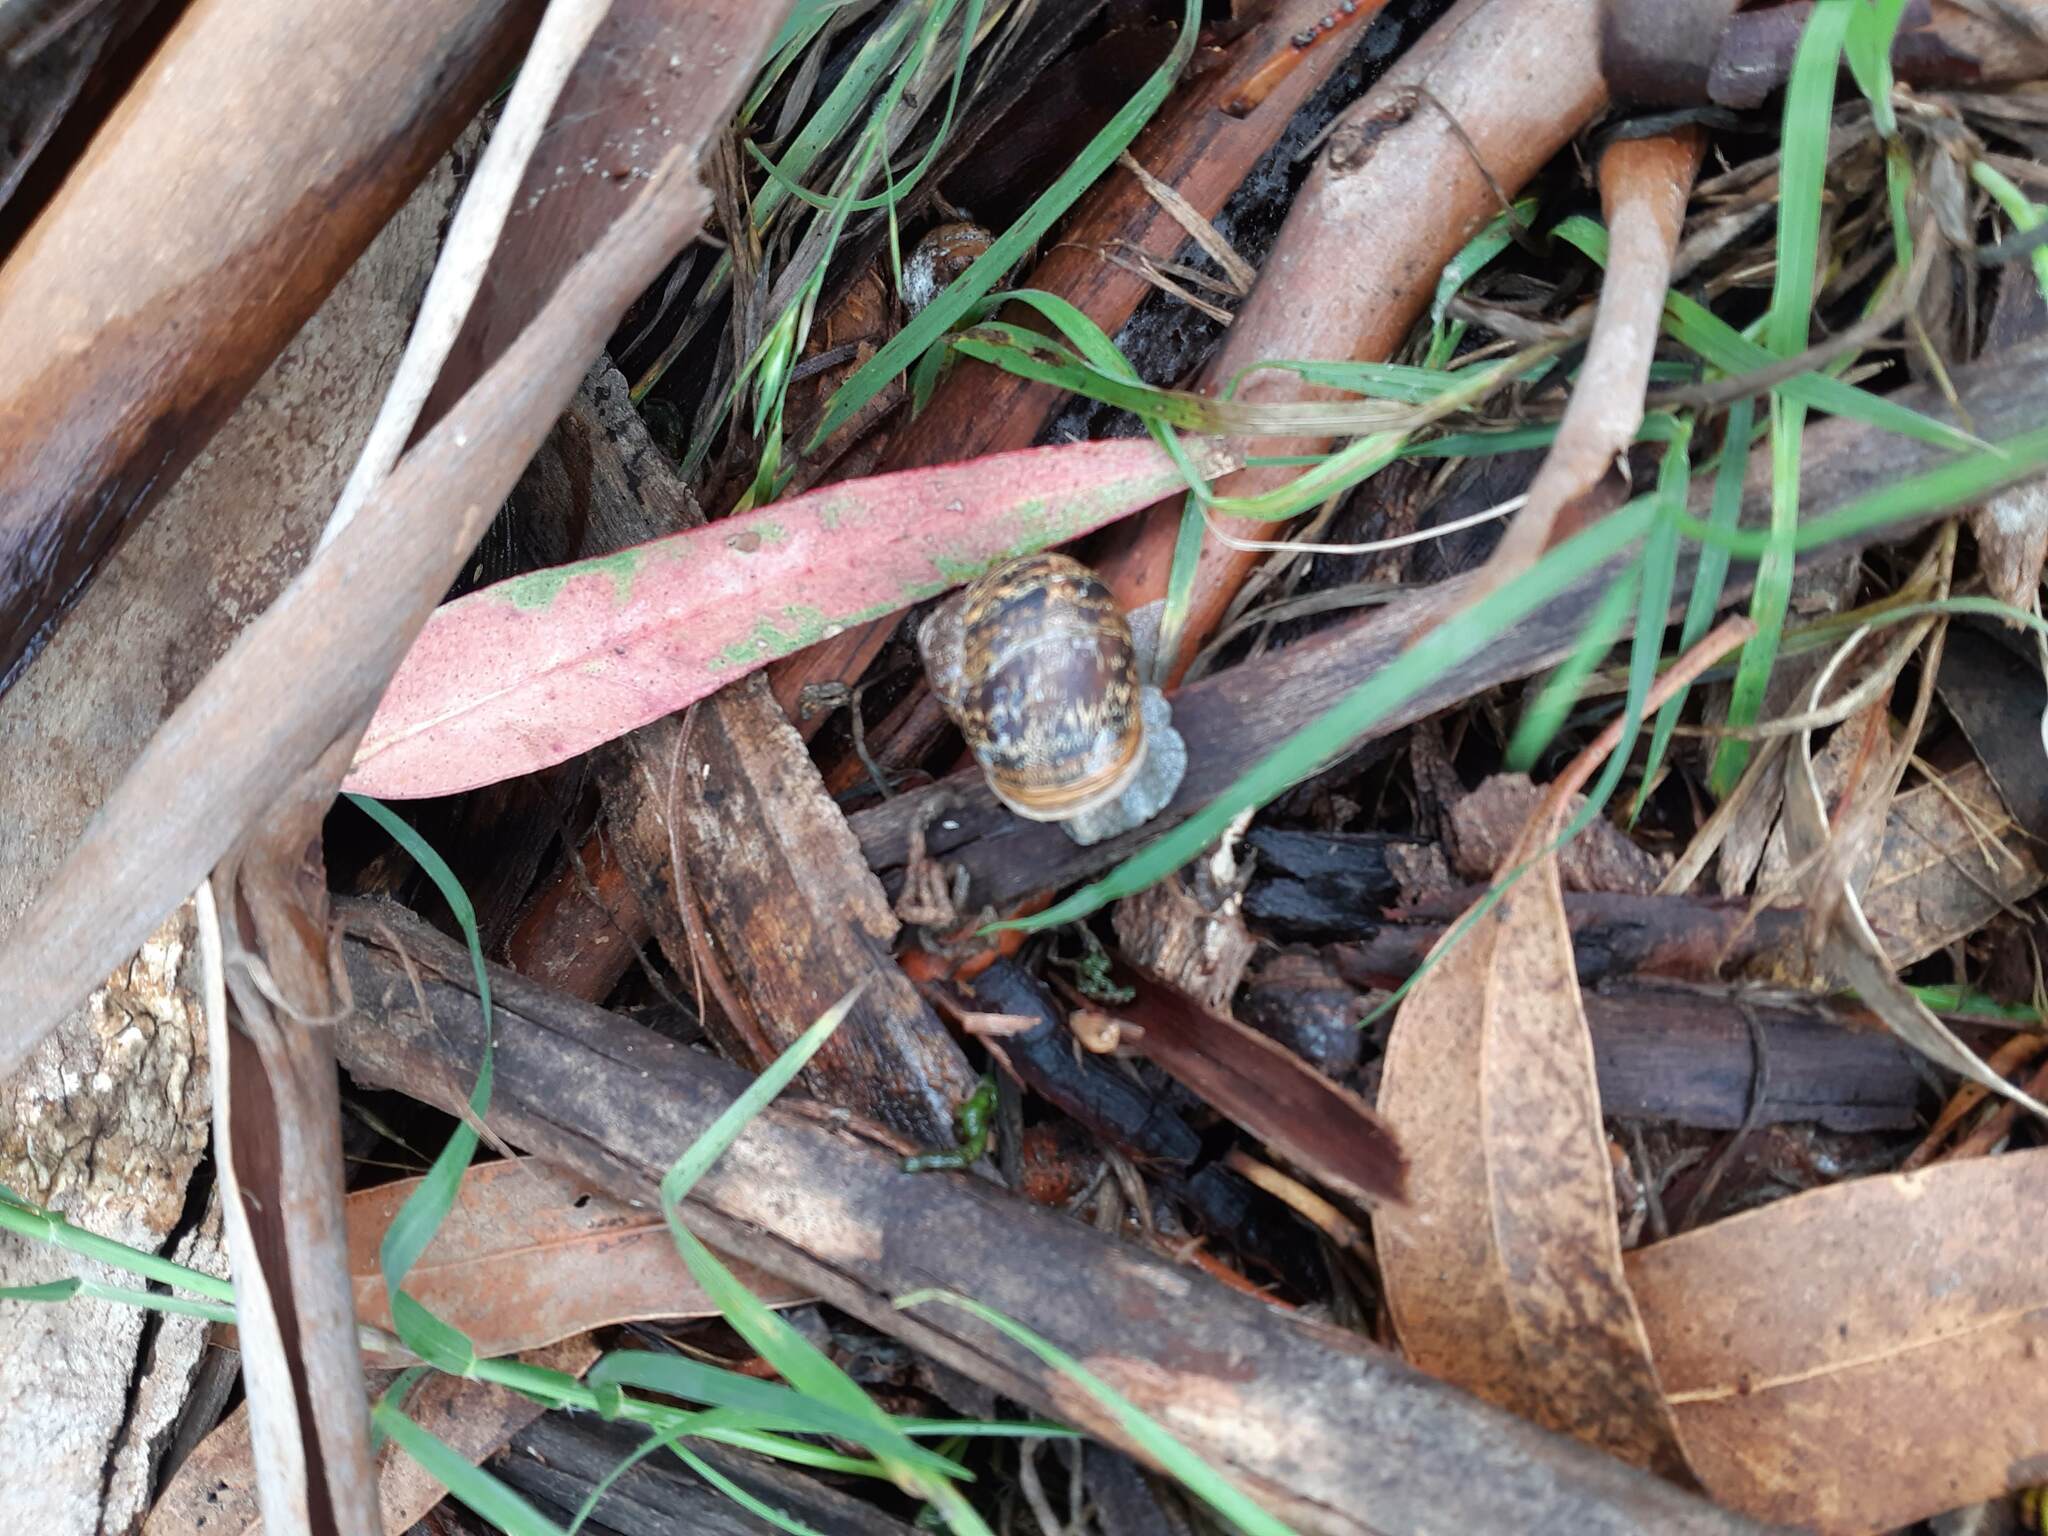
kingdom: Animalia
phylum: Mollusca
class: Gastropoda
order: Stylommatophora
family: Helicidae
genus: Cornu
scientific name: Cornu aspersum
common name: Brown garden snail
